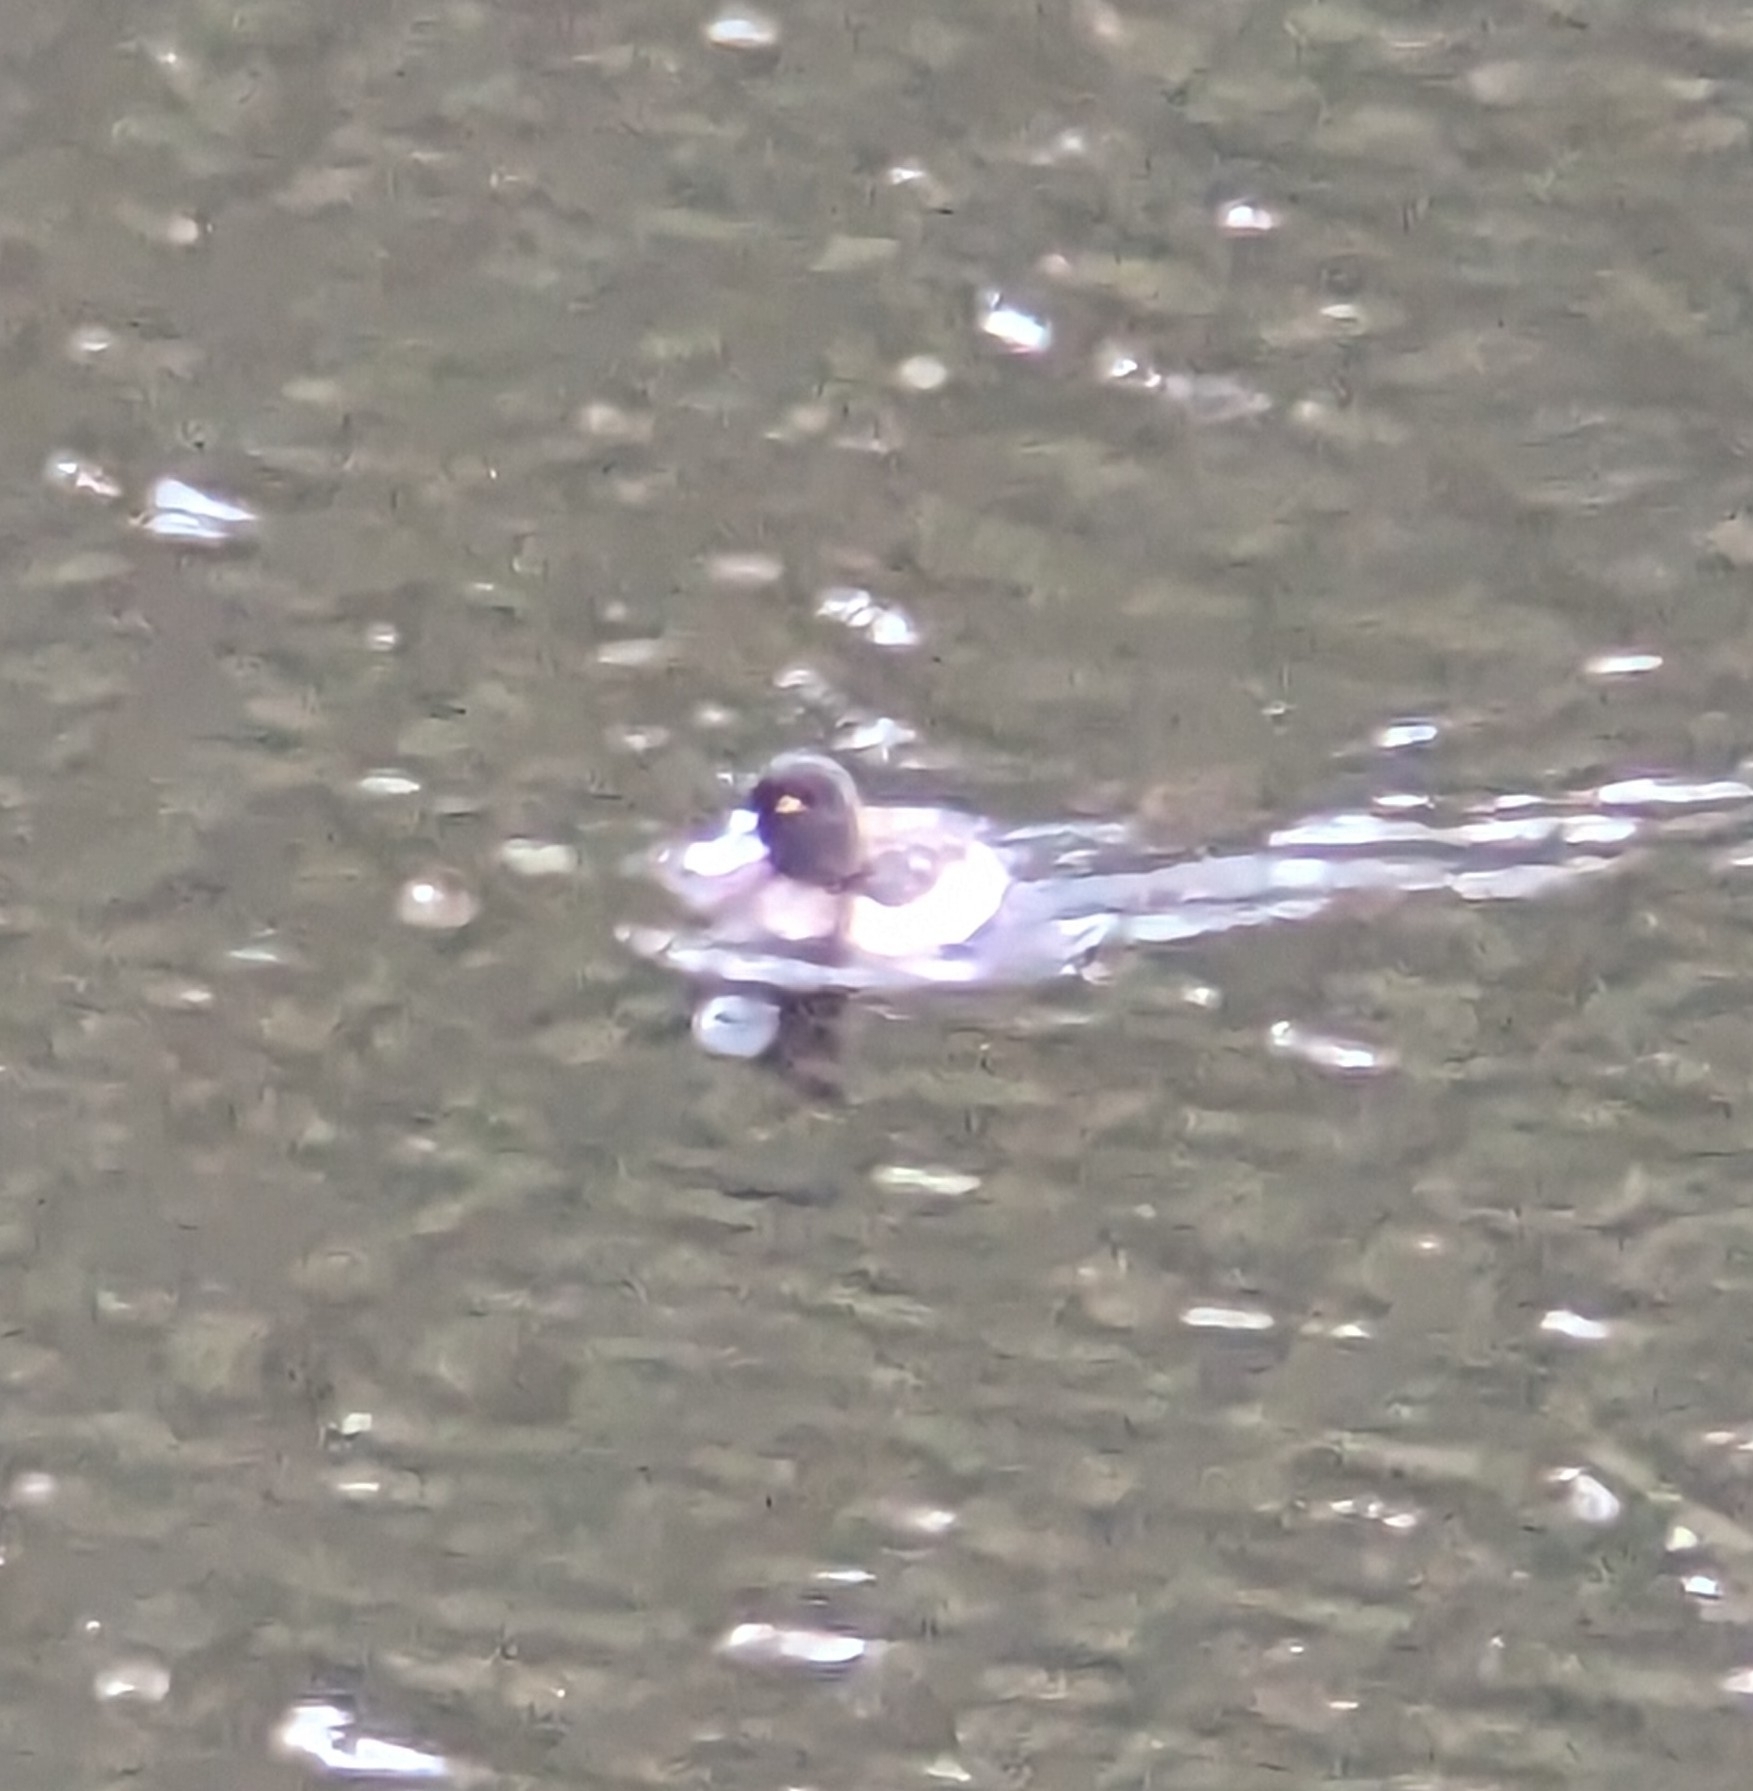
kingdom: Animalia
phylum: Chordata
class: Aves
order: Anseriformes
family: Anatidae
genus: Aythya
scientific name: Aythya affinis
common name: Lesser scaup
